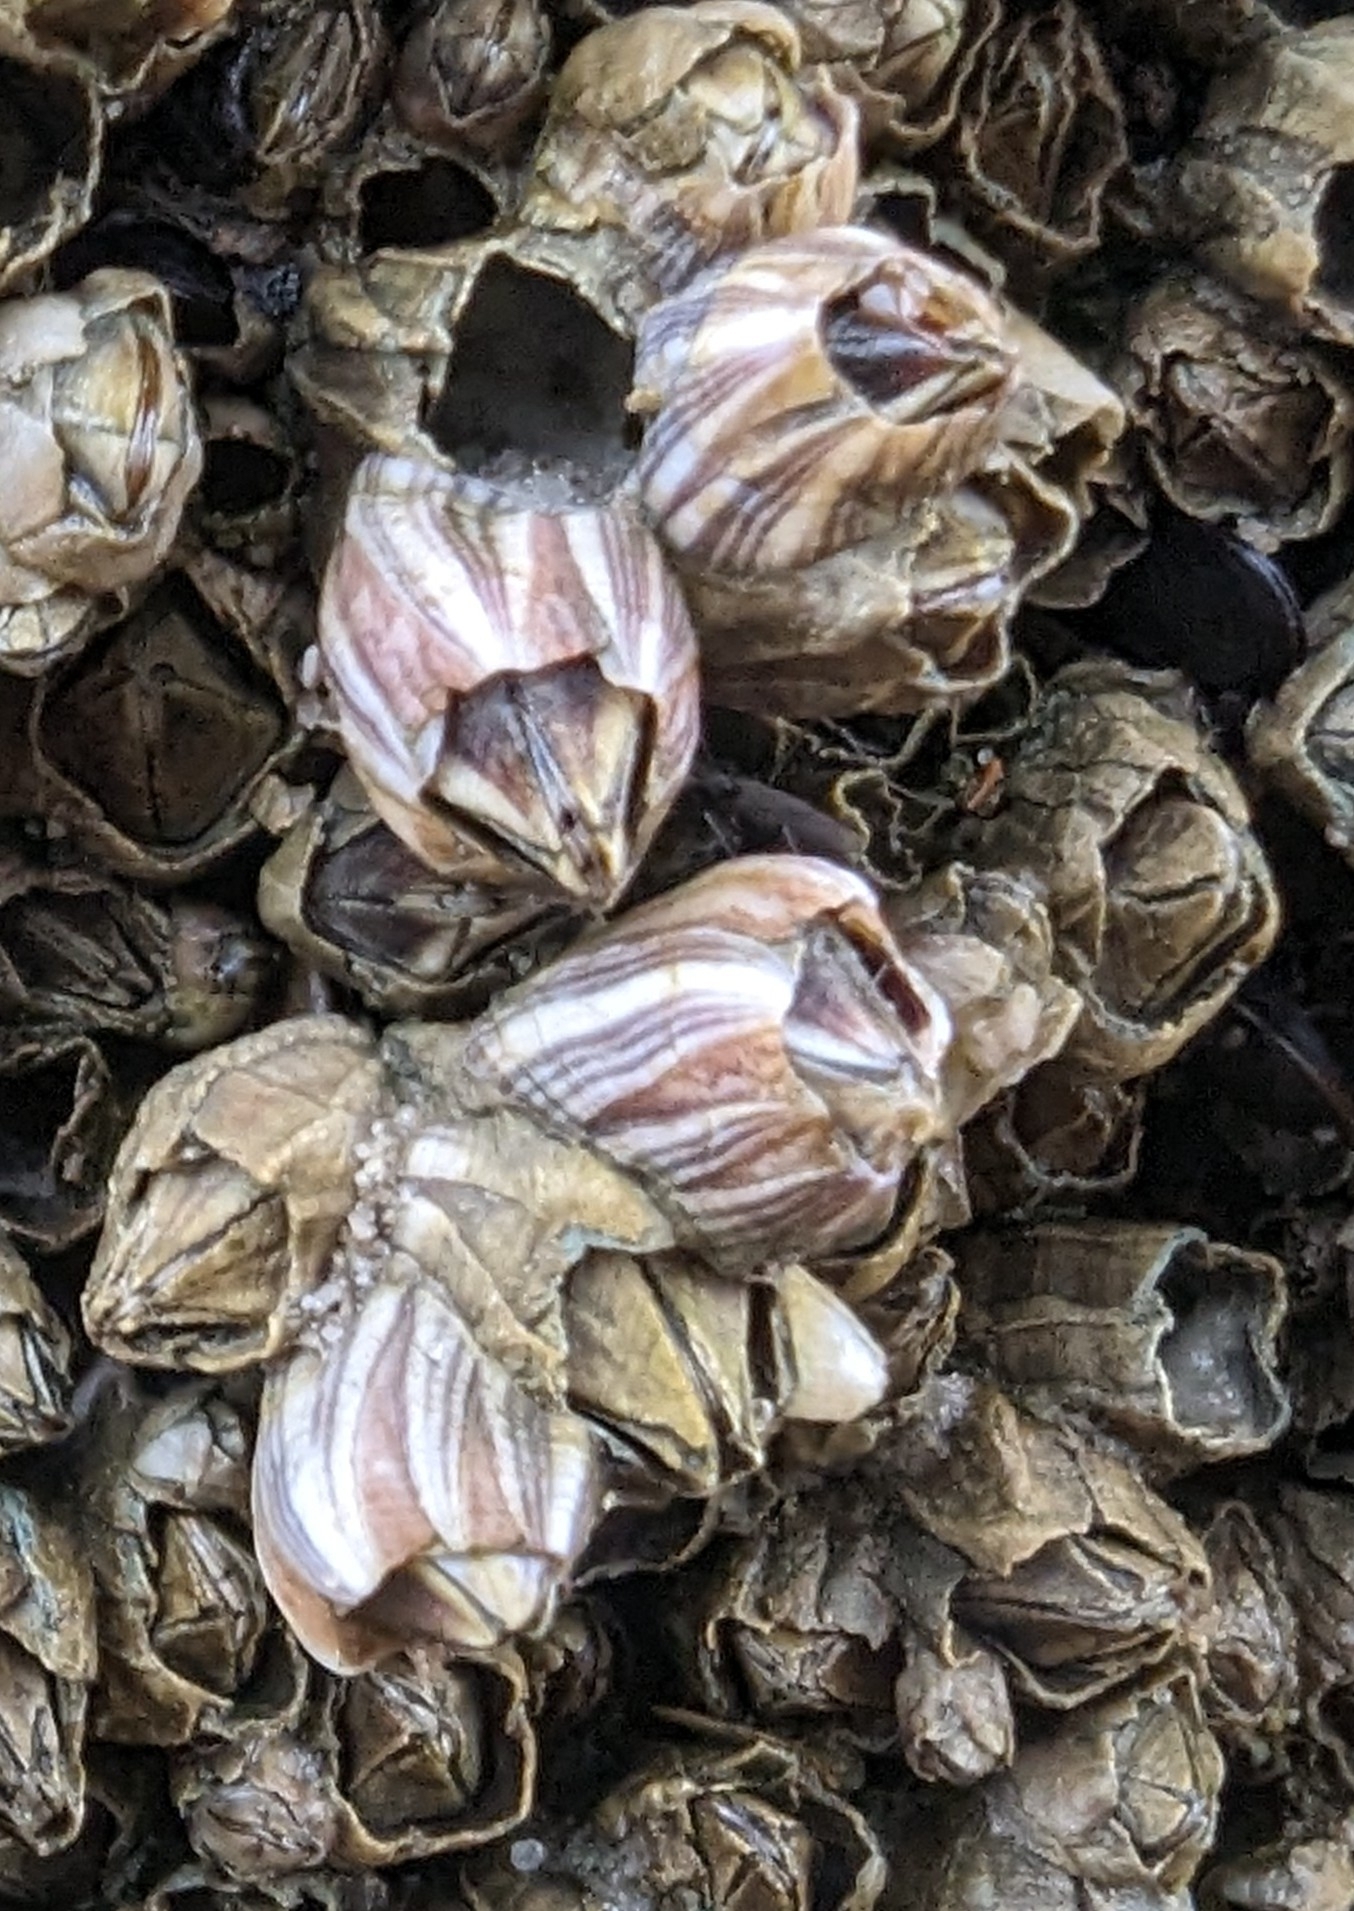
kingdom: Animalia
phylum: Arthropoda
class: Maxillopoda
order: Sessilia
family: Balanidae
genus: Amphibalanus
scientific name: Amphibalanus amphitrite
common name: Striped acorn barnacle
